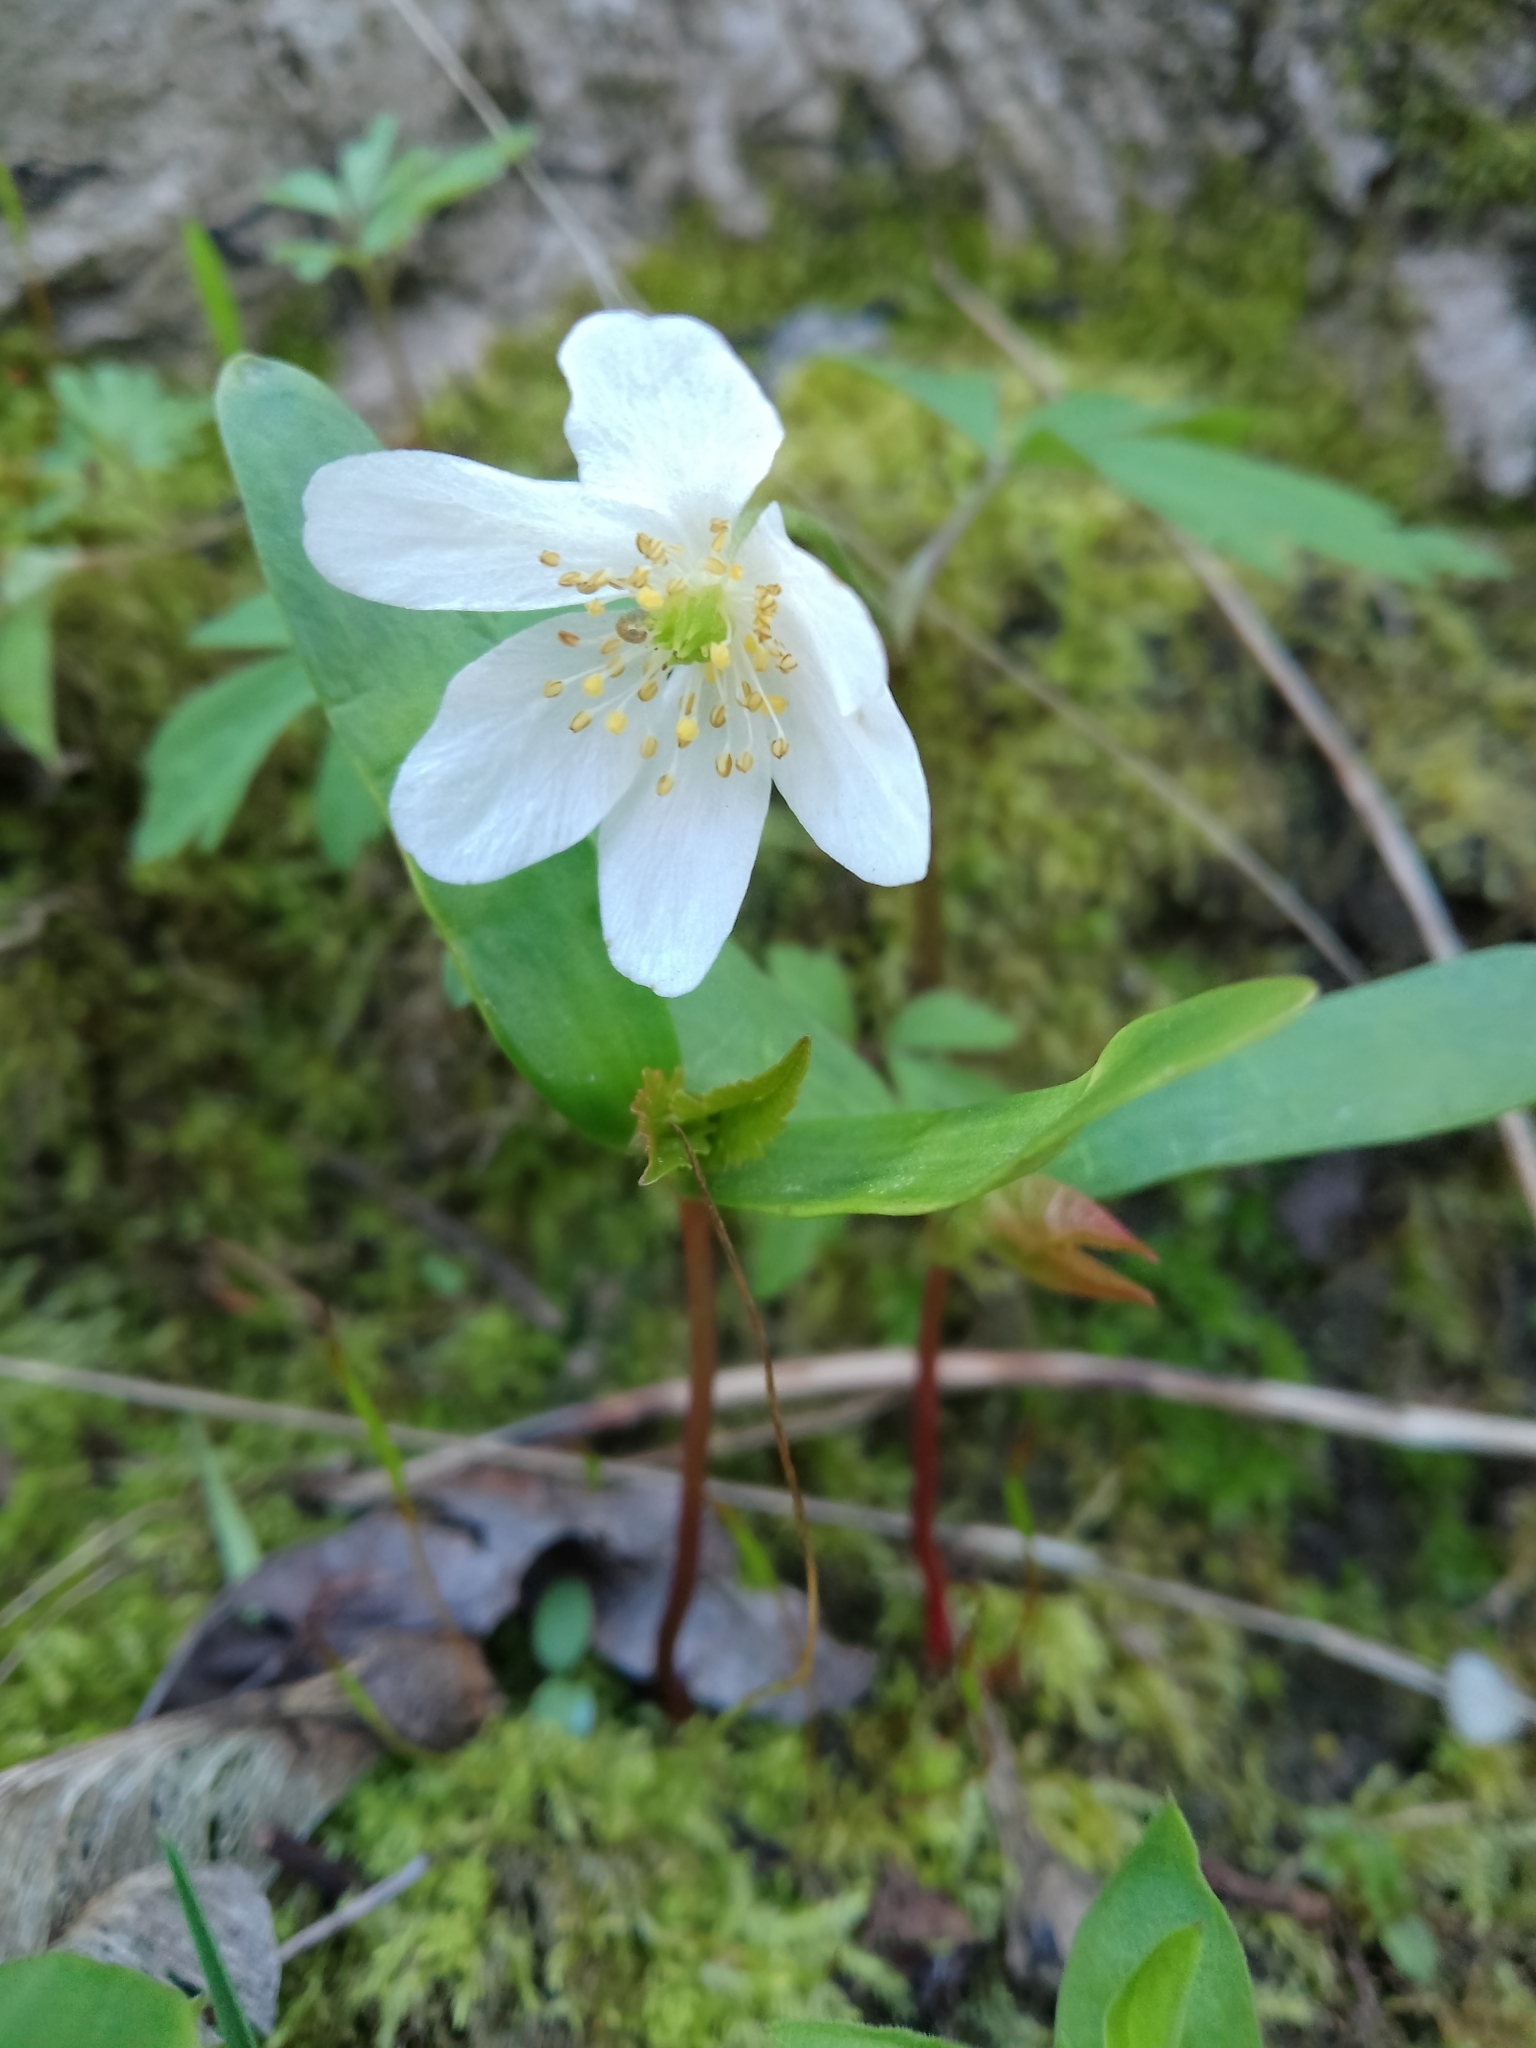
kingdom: Plantae
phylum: Tracheophyta
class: Magnoliopsida
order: Ranunculales
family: Ranunculaceae
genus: Anemone
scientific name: Anemone nemorosa
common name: Wood anemone
